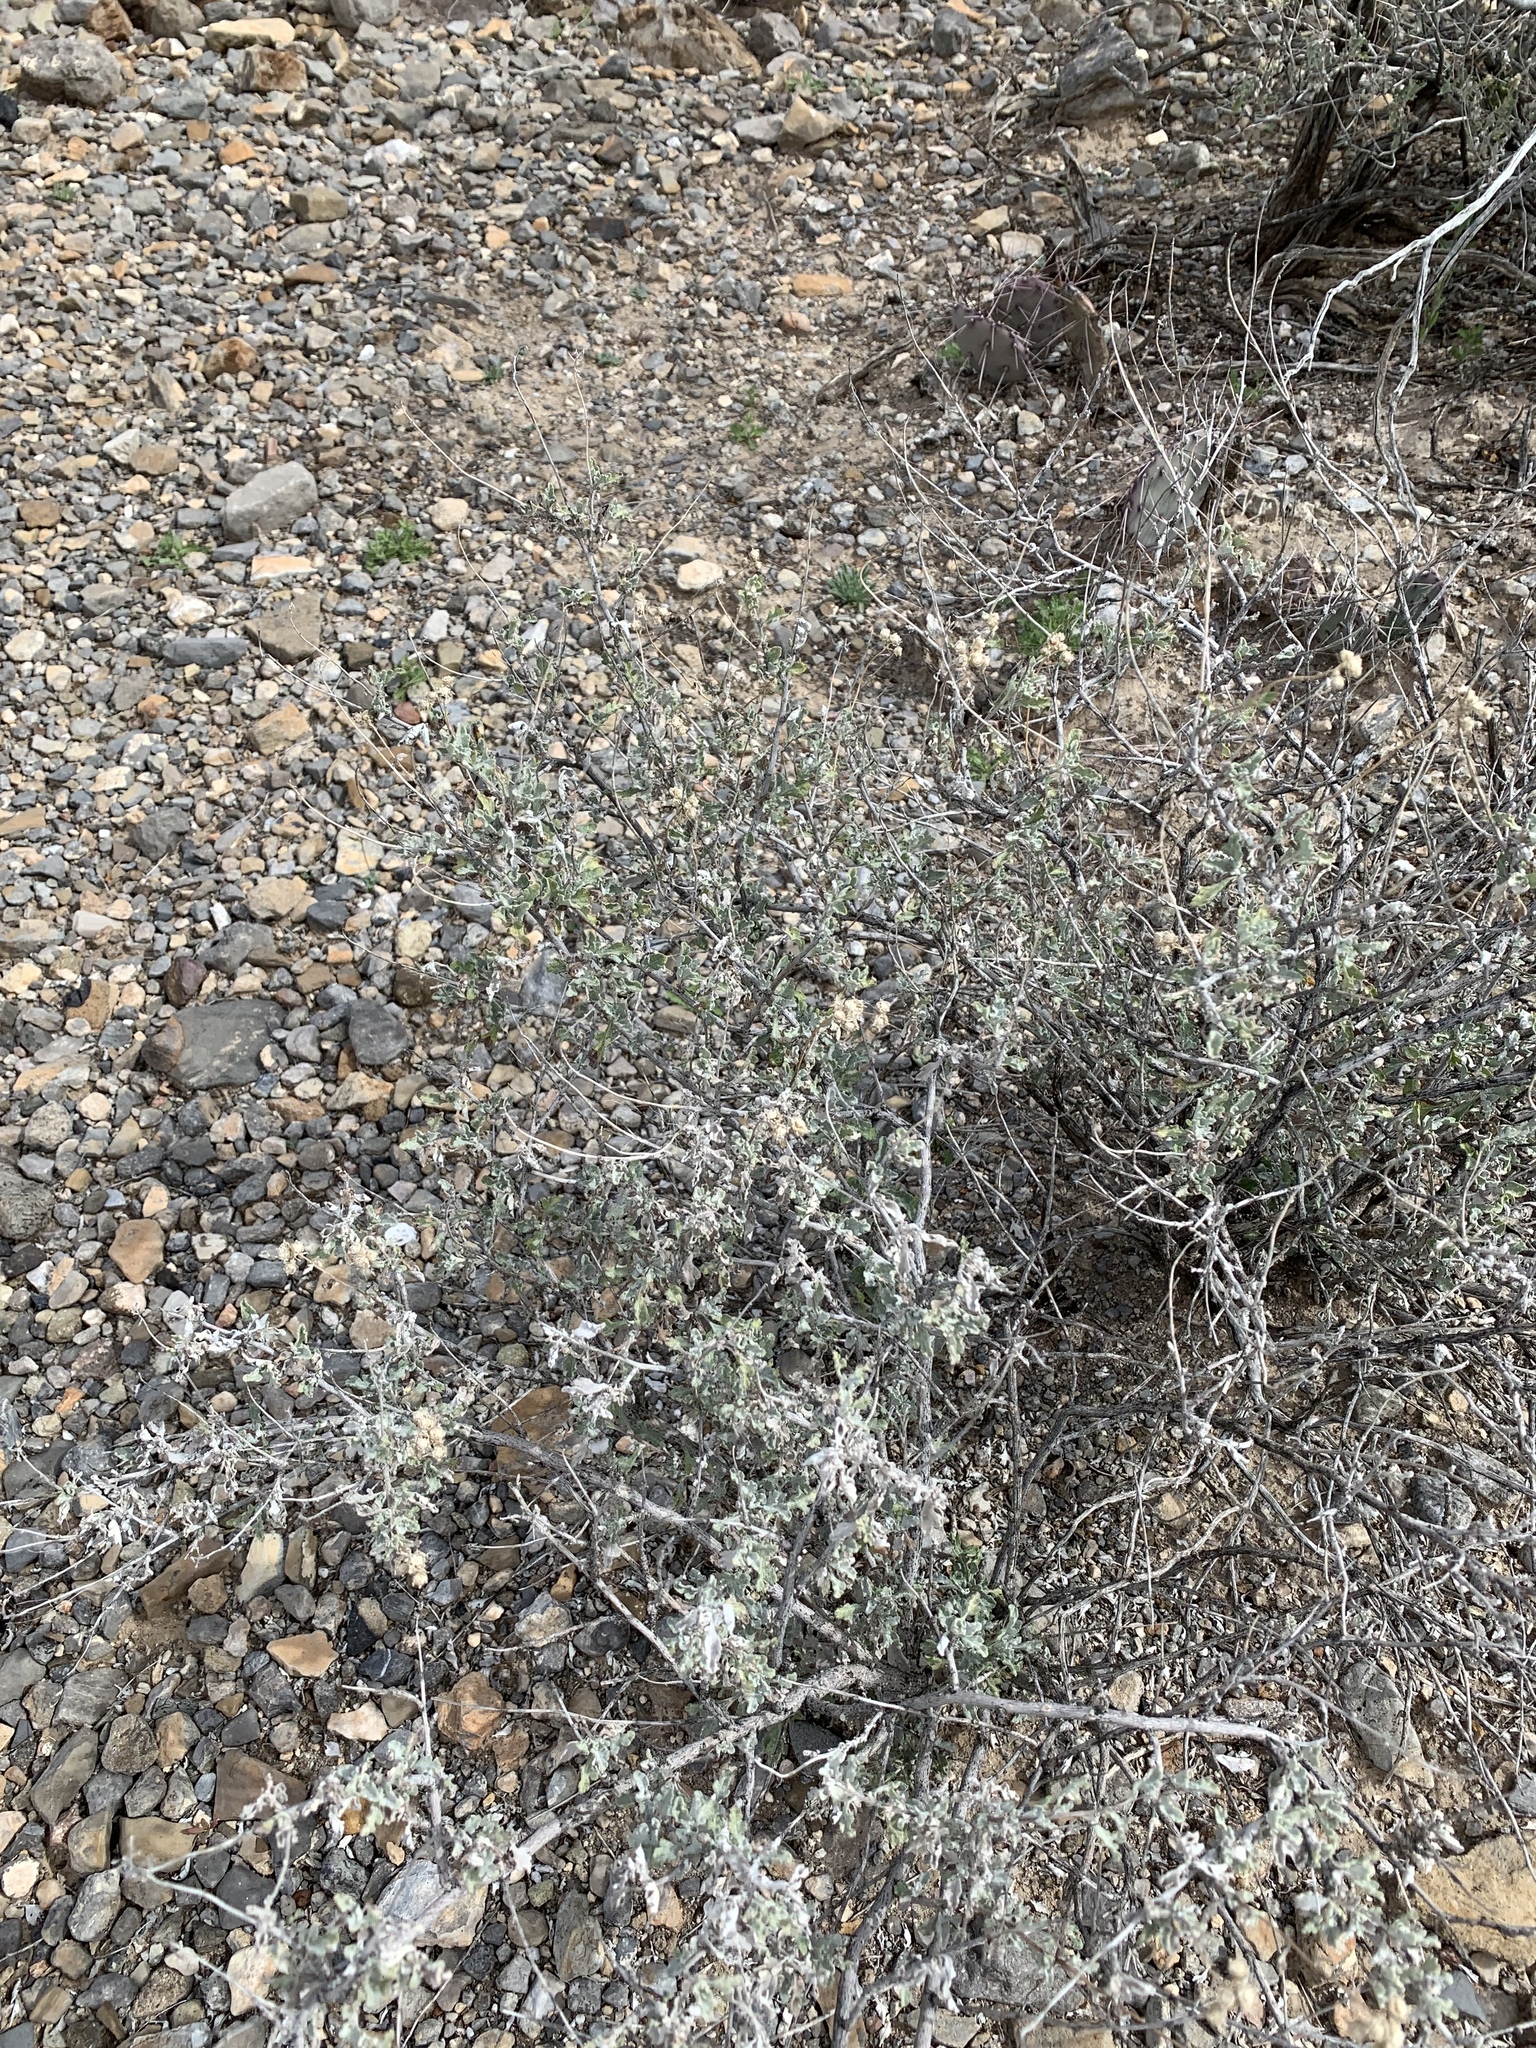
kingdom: Plantae
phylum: Tracheophyta
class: Magnoliopsida
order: Asterales
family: Asteraceae
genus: Parthenium
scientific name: Parthenium incanum
